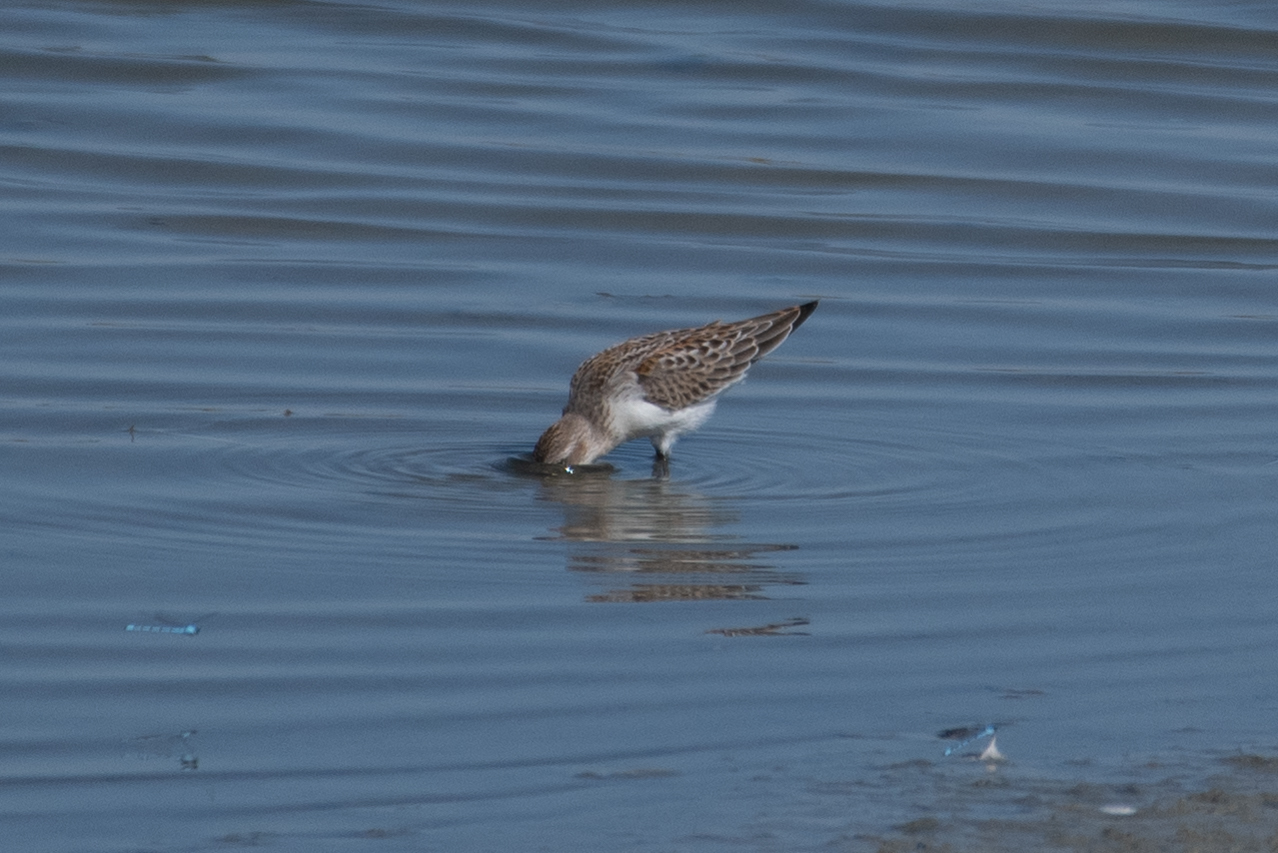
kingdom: Animalia
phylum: Chordata
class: Aves
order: Charadriiformes
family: Scolopacidae
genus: Calidris
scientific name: Calidris mauri
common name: Western sandpiper
